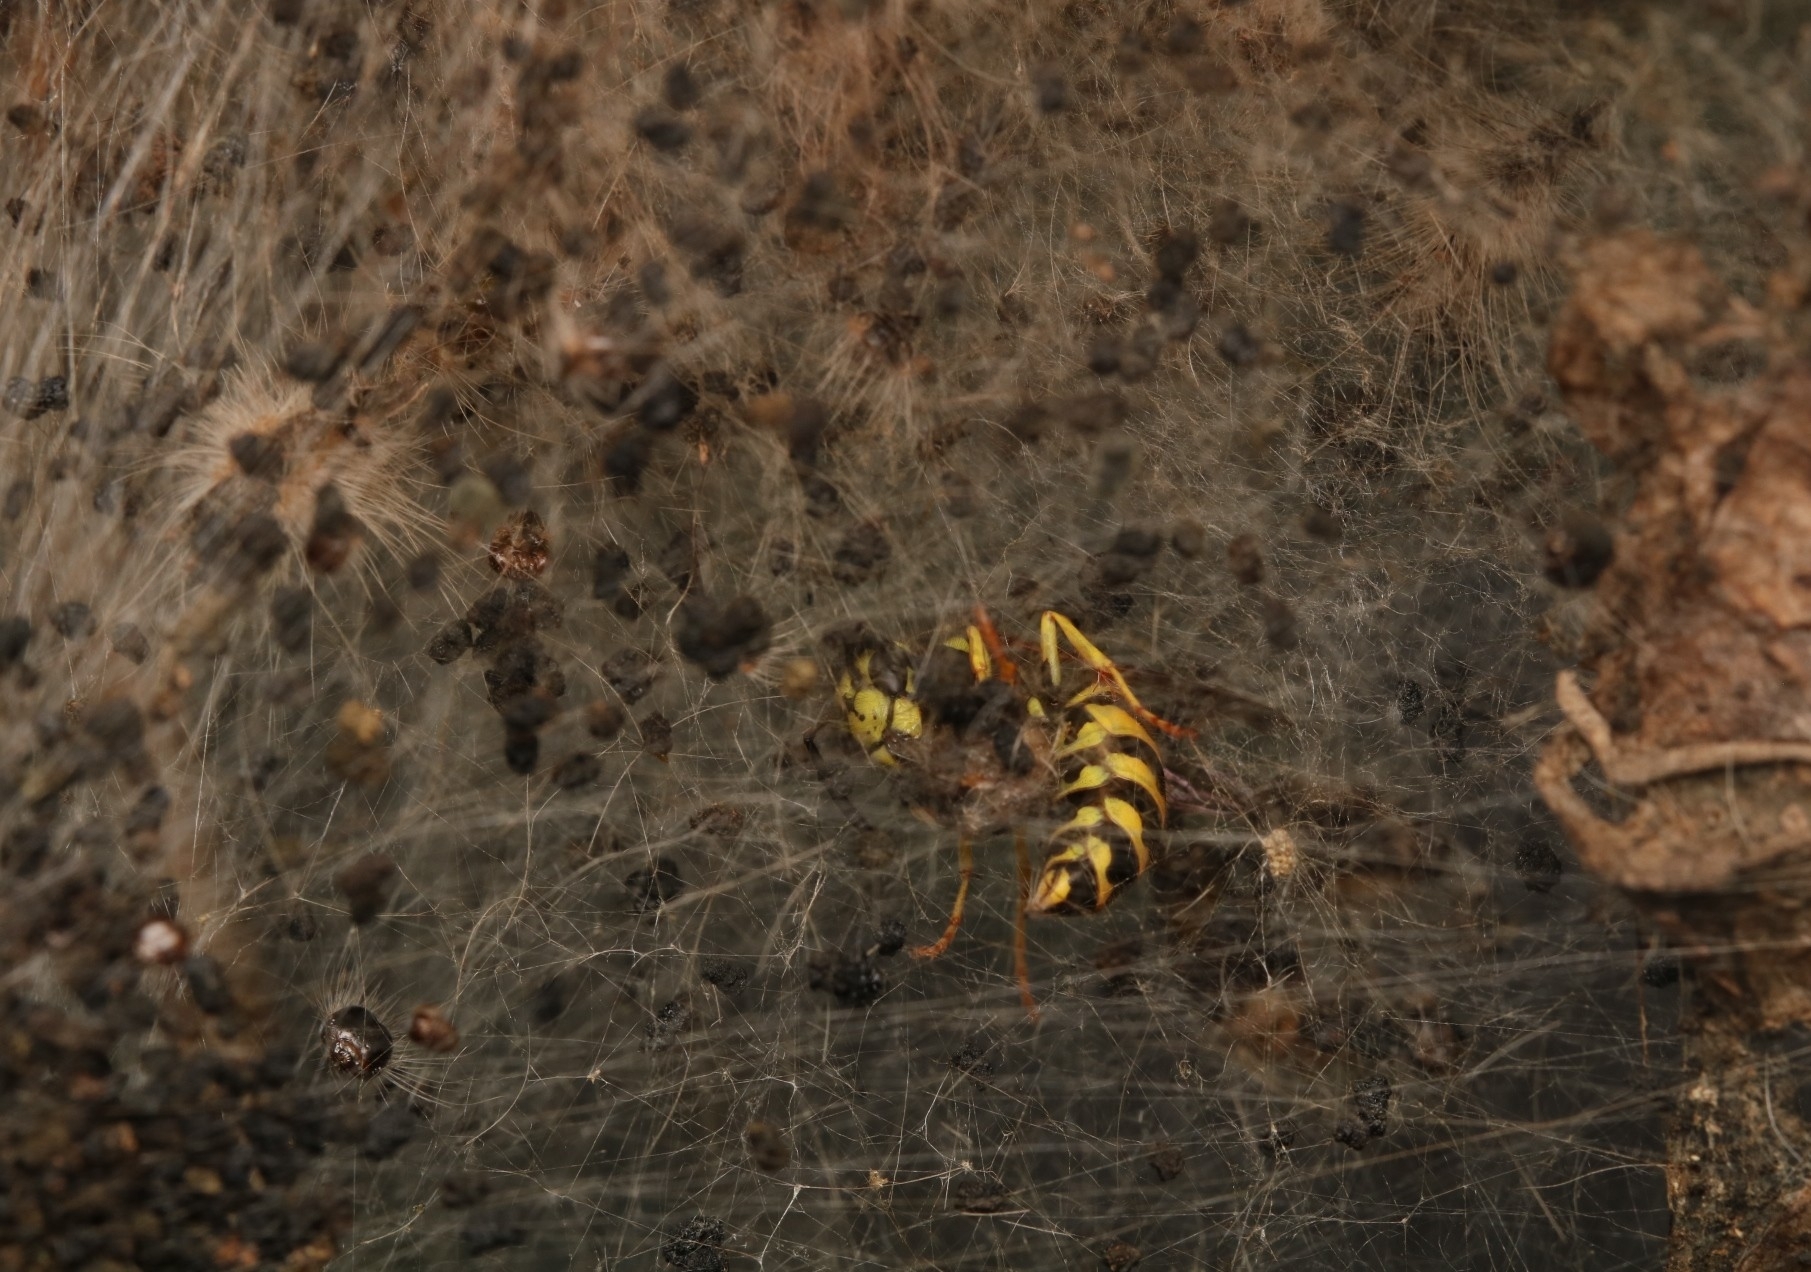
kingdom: Animalia
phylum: Arthropoda
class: Insecta
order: Hymenoptera
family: Vespidae
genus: Vespula
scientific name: Vespula
